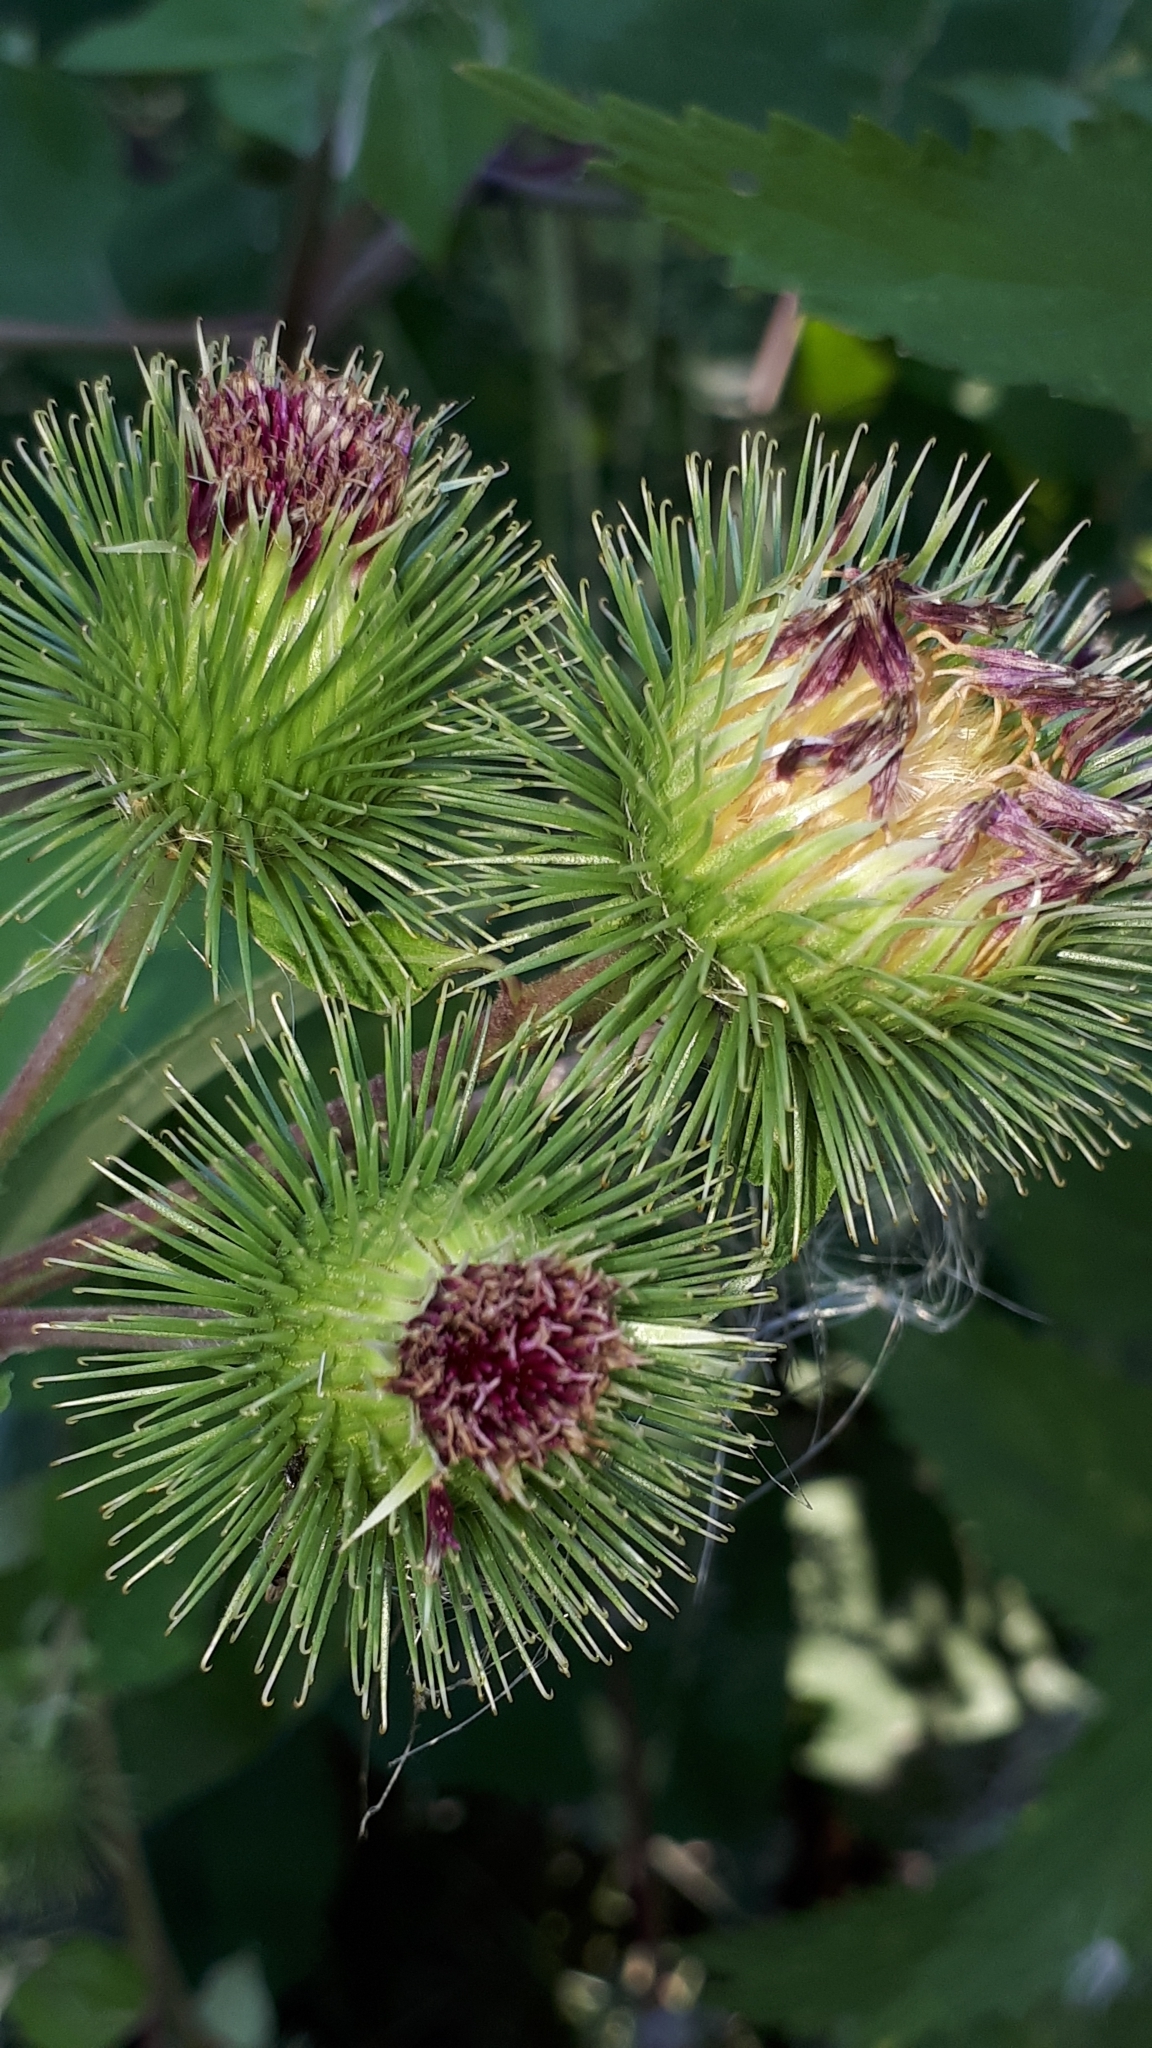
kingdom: Plantae
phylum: Tracheophyta
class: Magnoliopsida
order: Asterales
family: Asteraceae
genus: Arctium
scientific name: Arctium lappa
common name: Greater burdock
